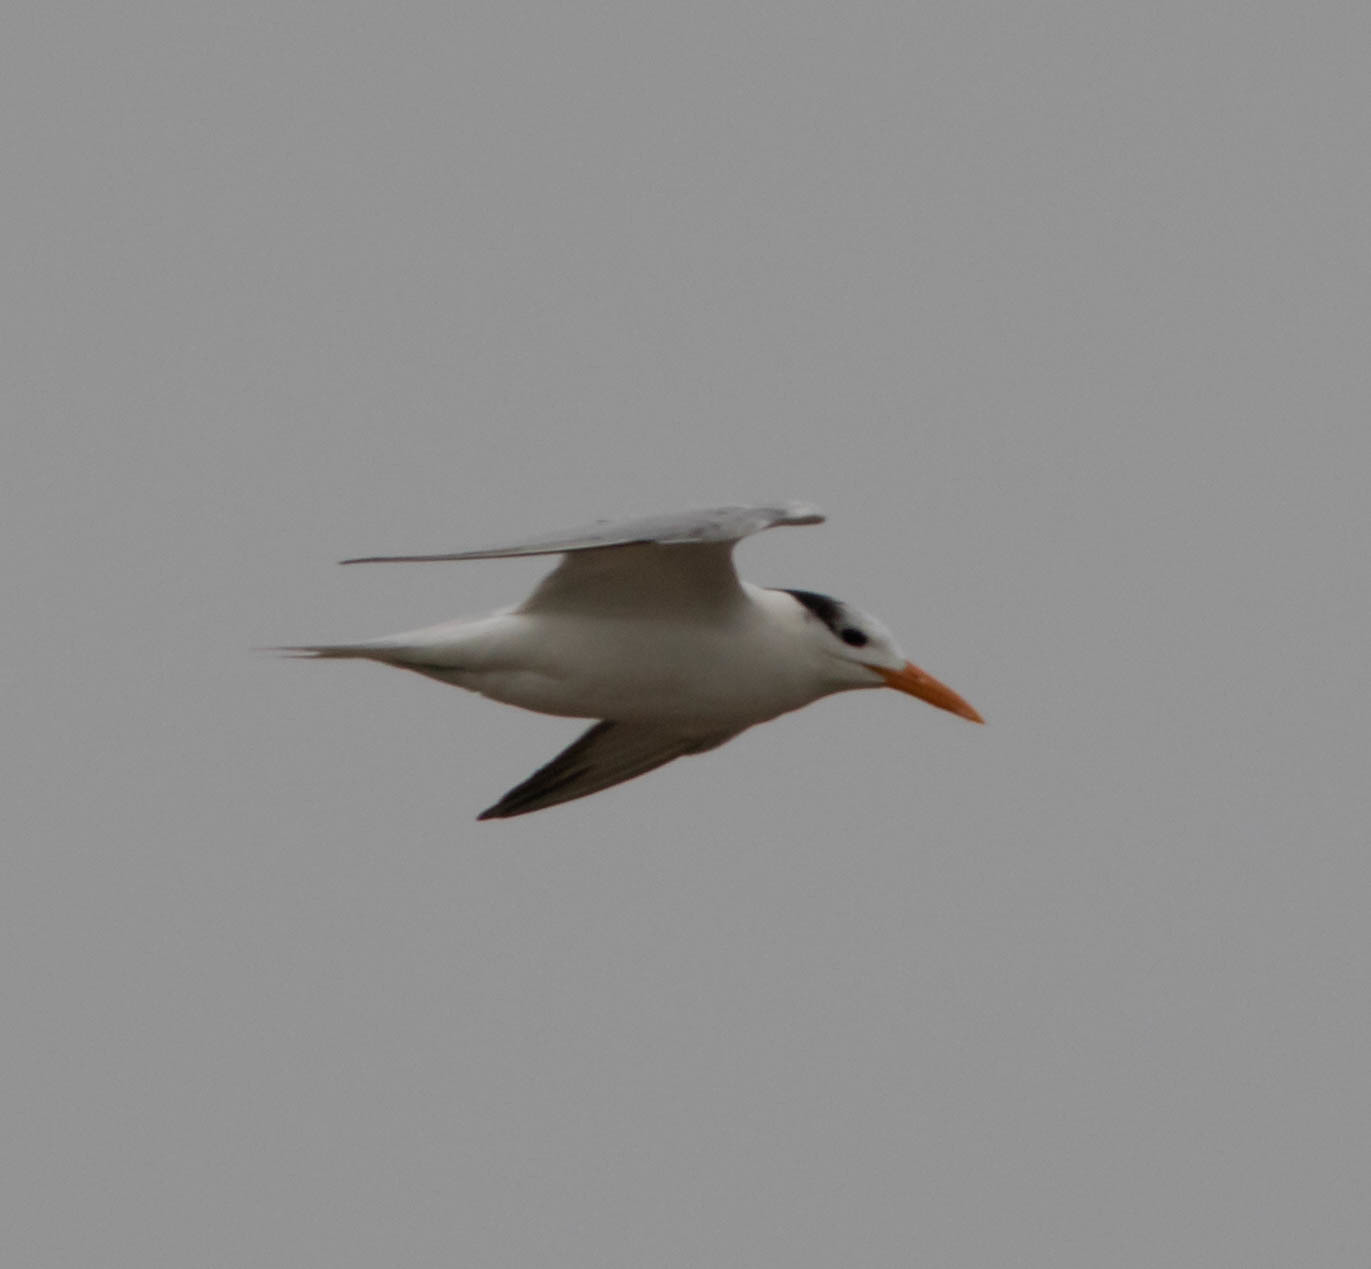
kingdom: Animalia
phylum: Chordata
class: Aves
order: Charadriiformes
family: Laridae
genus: Thalasseus
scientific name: Thalasseus maximus
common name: Royal tern
